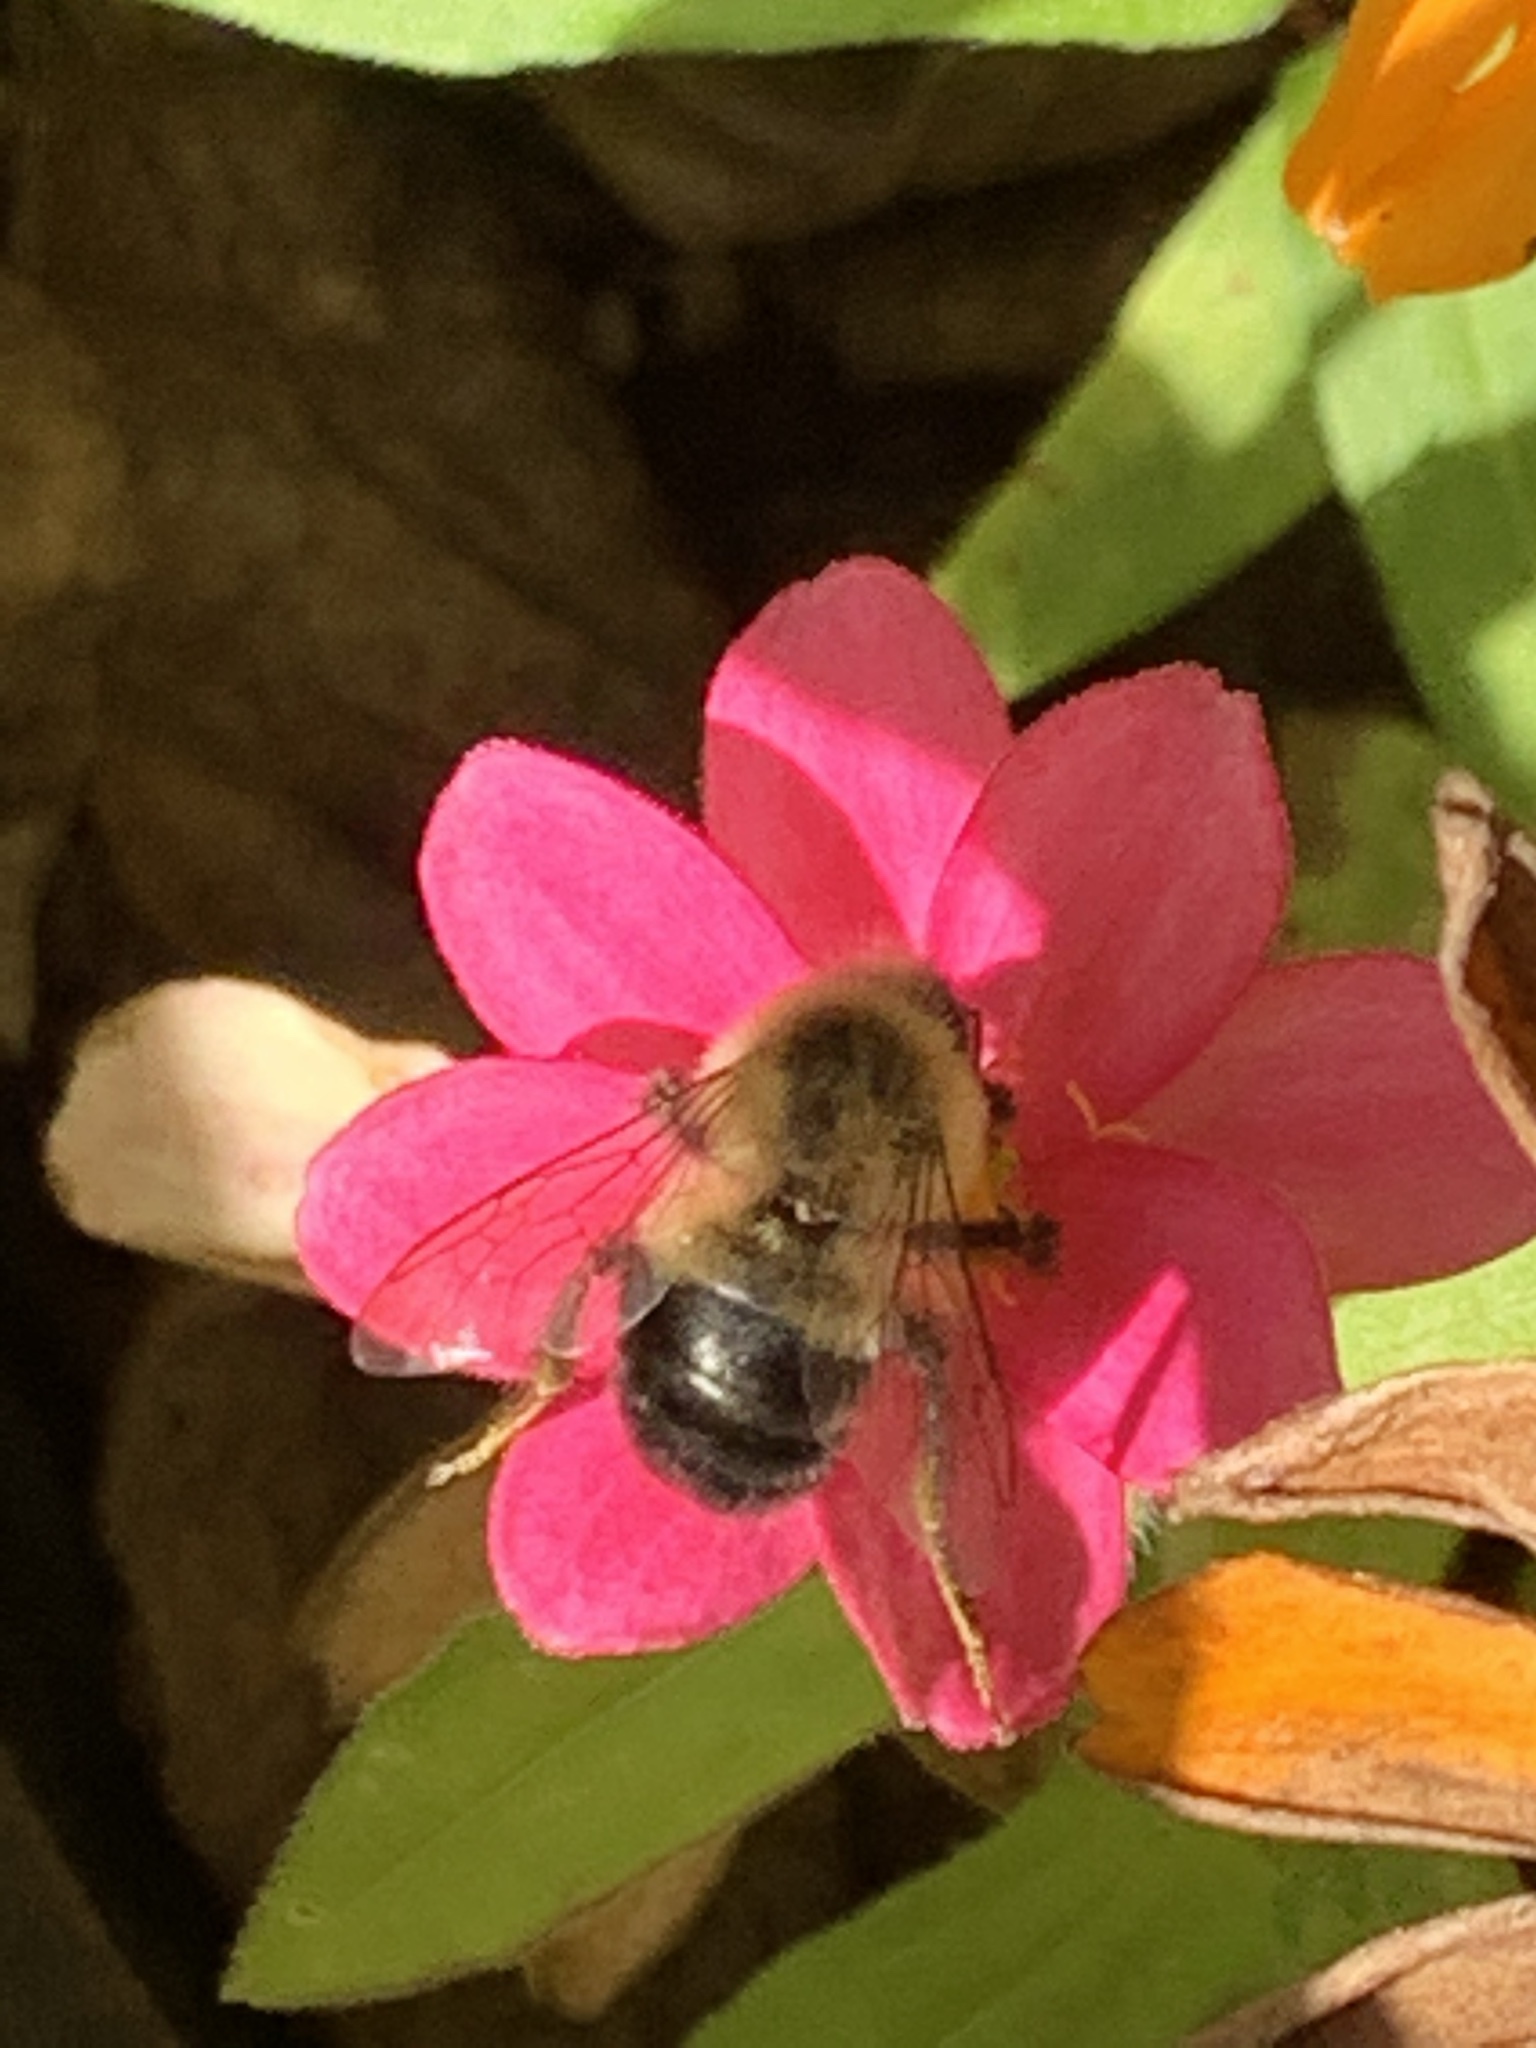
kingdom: Animalia
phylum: Arthropoda
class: Insecta
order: Hymenoptera
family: Apidae
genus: Bombus
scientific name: Bombus impatiens
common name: Common eastern bumble bee
